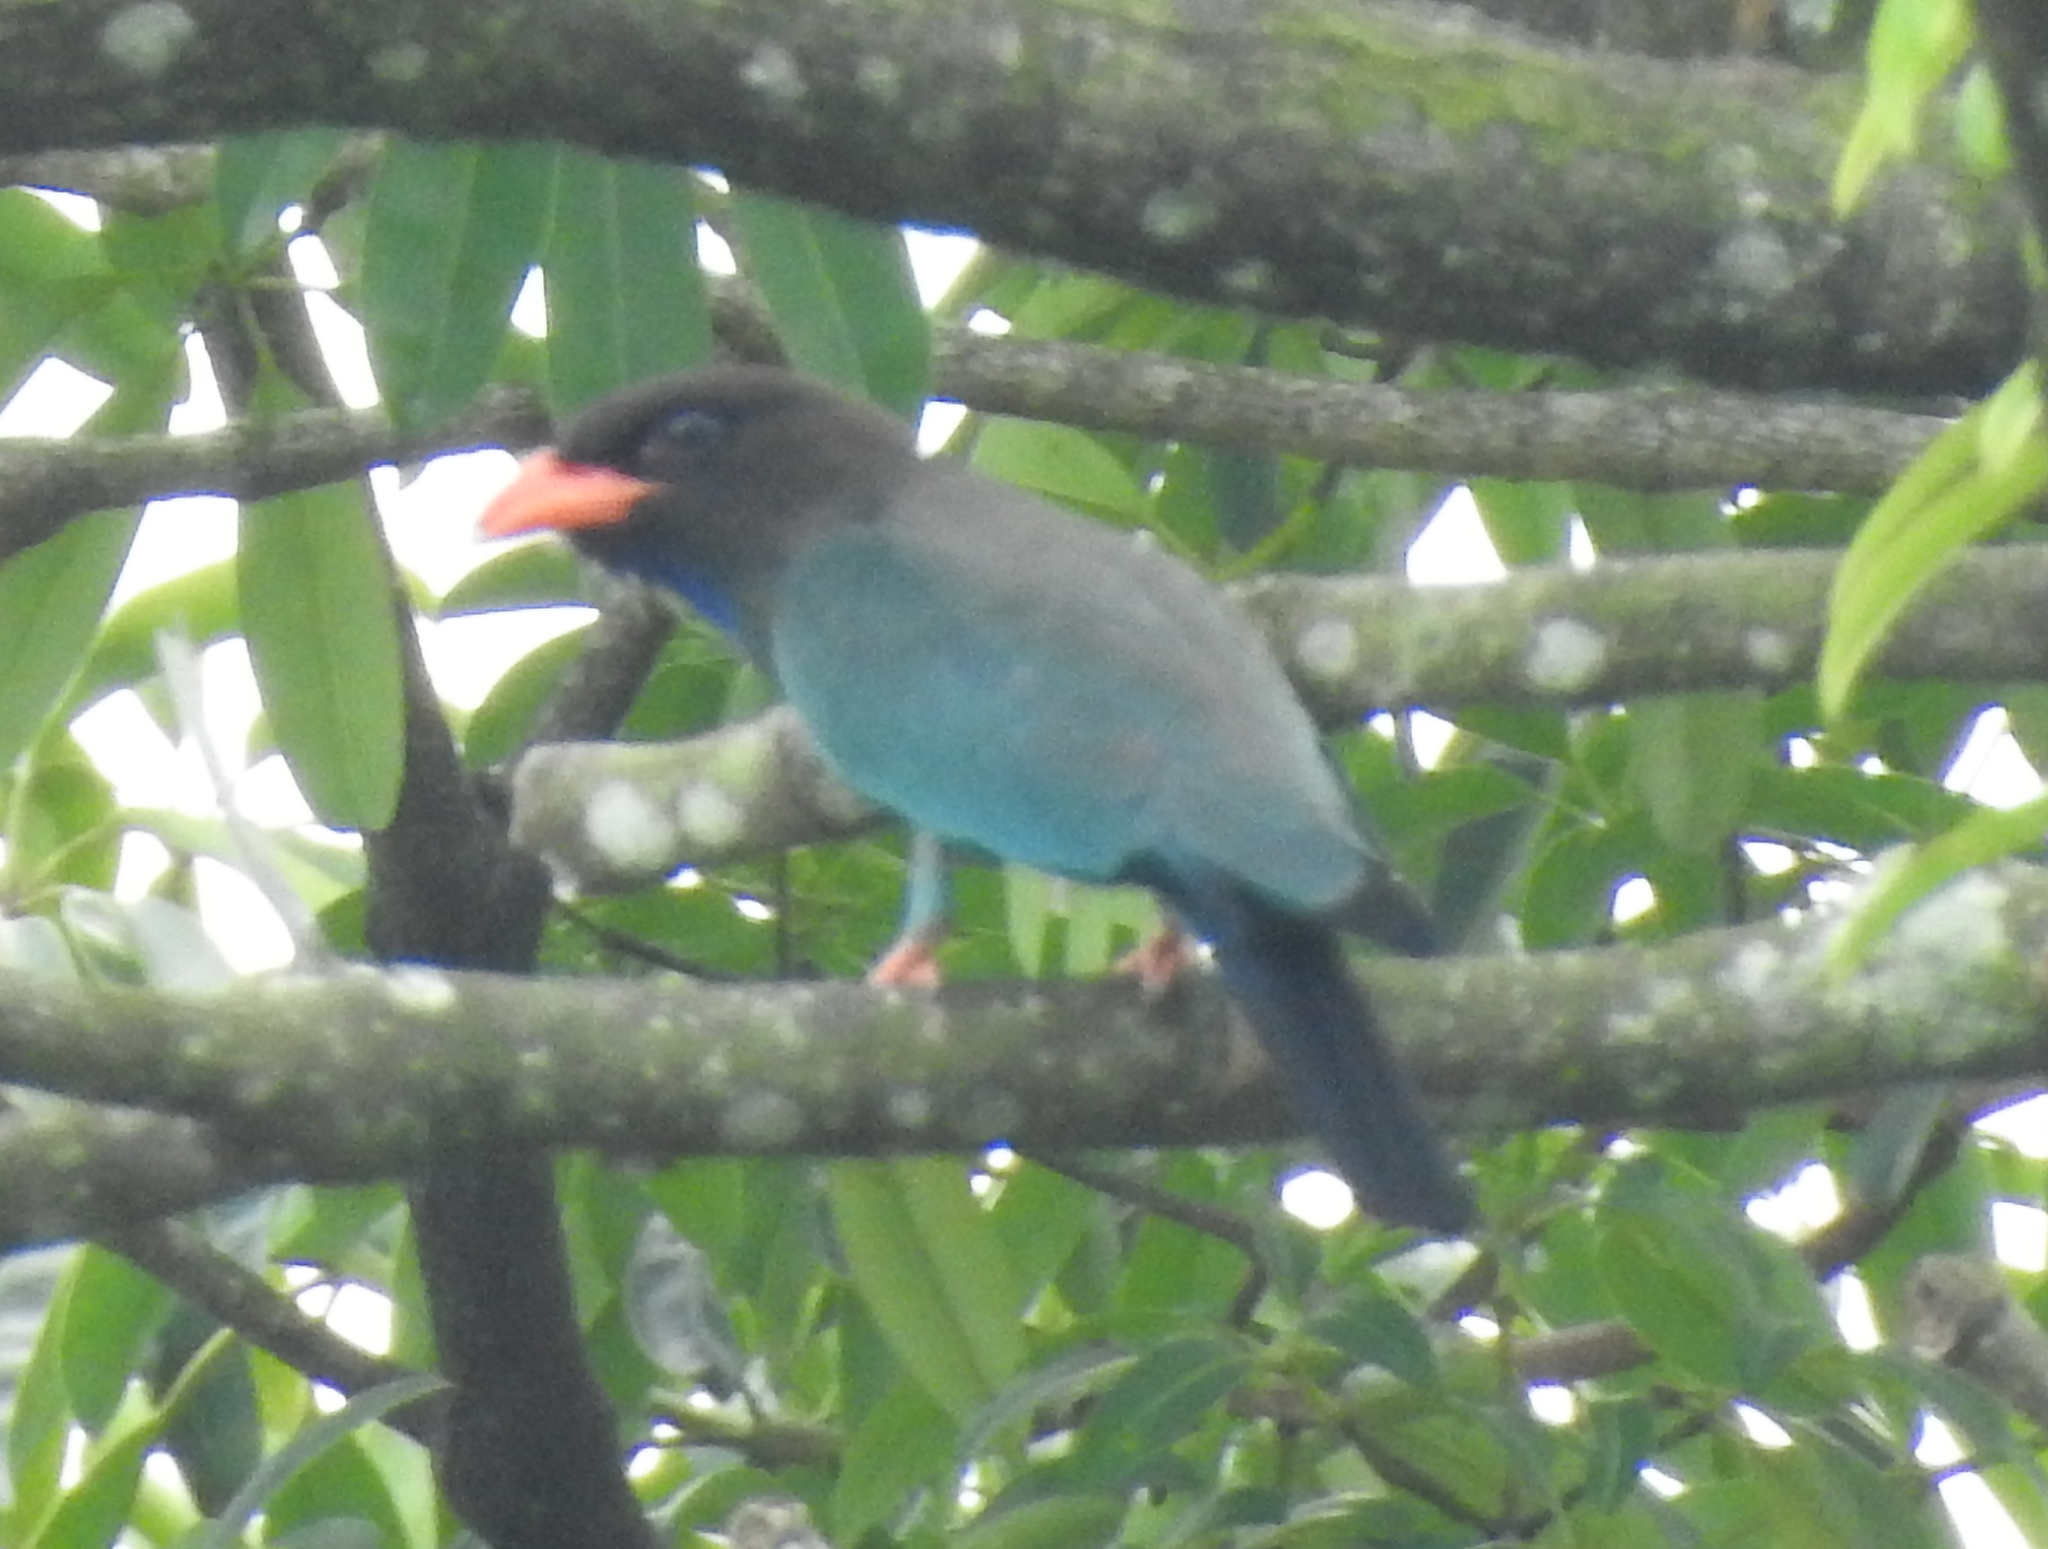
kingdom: Animalia
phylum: Chordata
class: Aves
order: Coraciiformes
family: Coraciidae
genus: Eurystomus
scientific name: Eurystomus orientalis
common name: Oriental dollarbird
